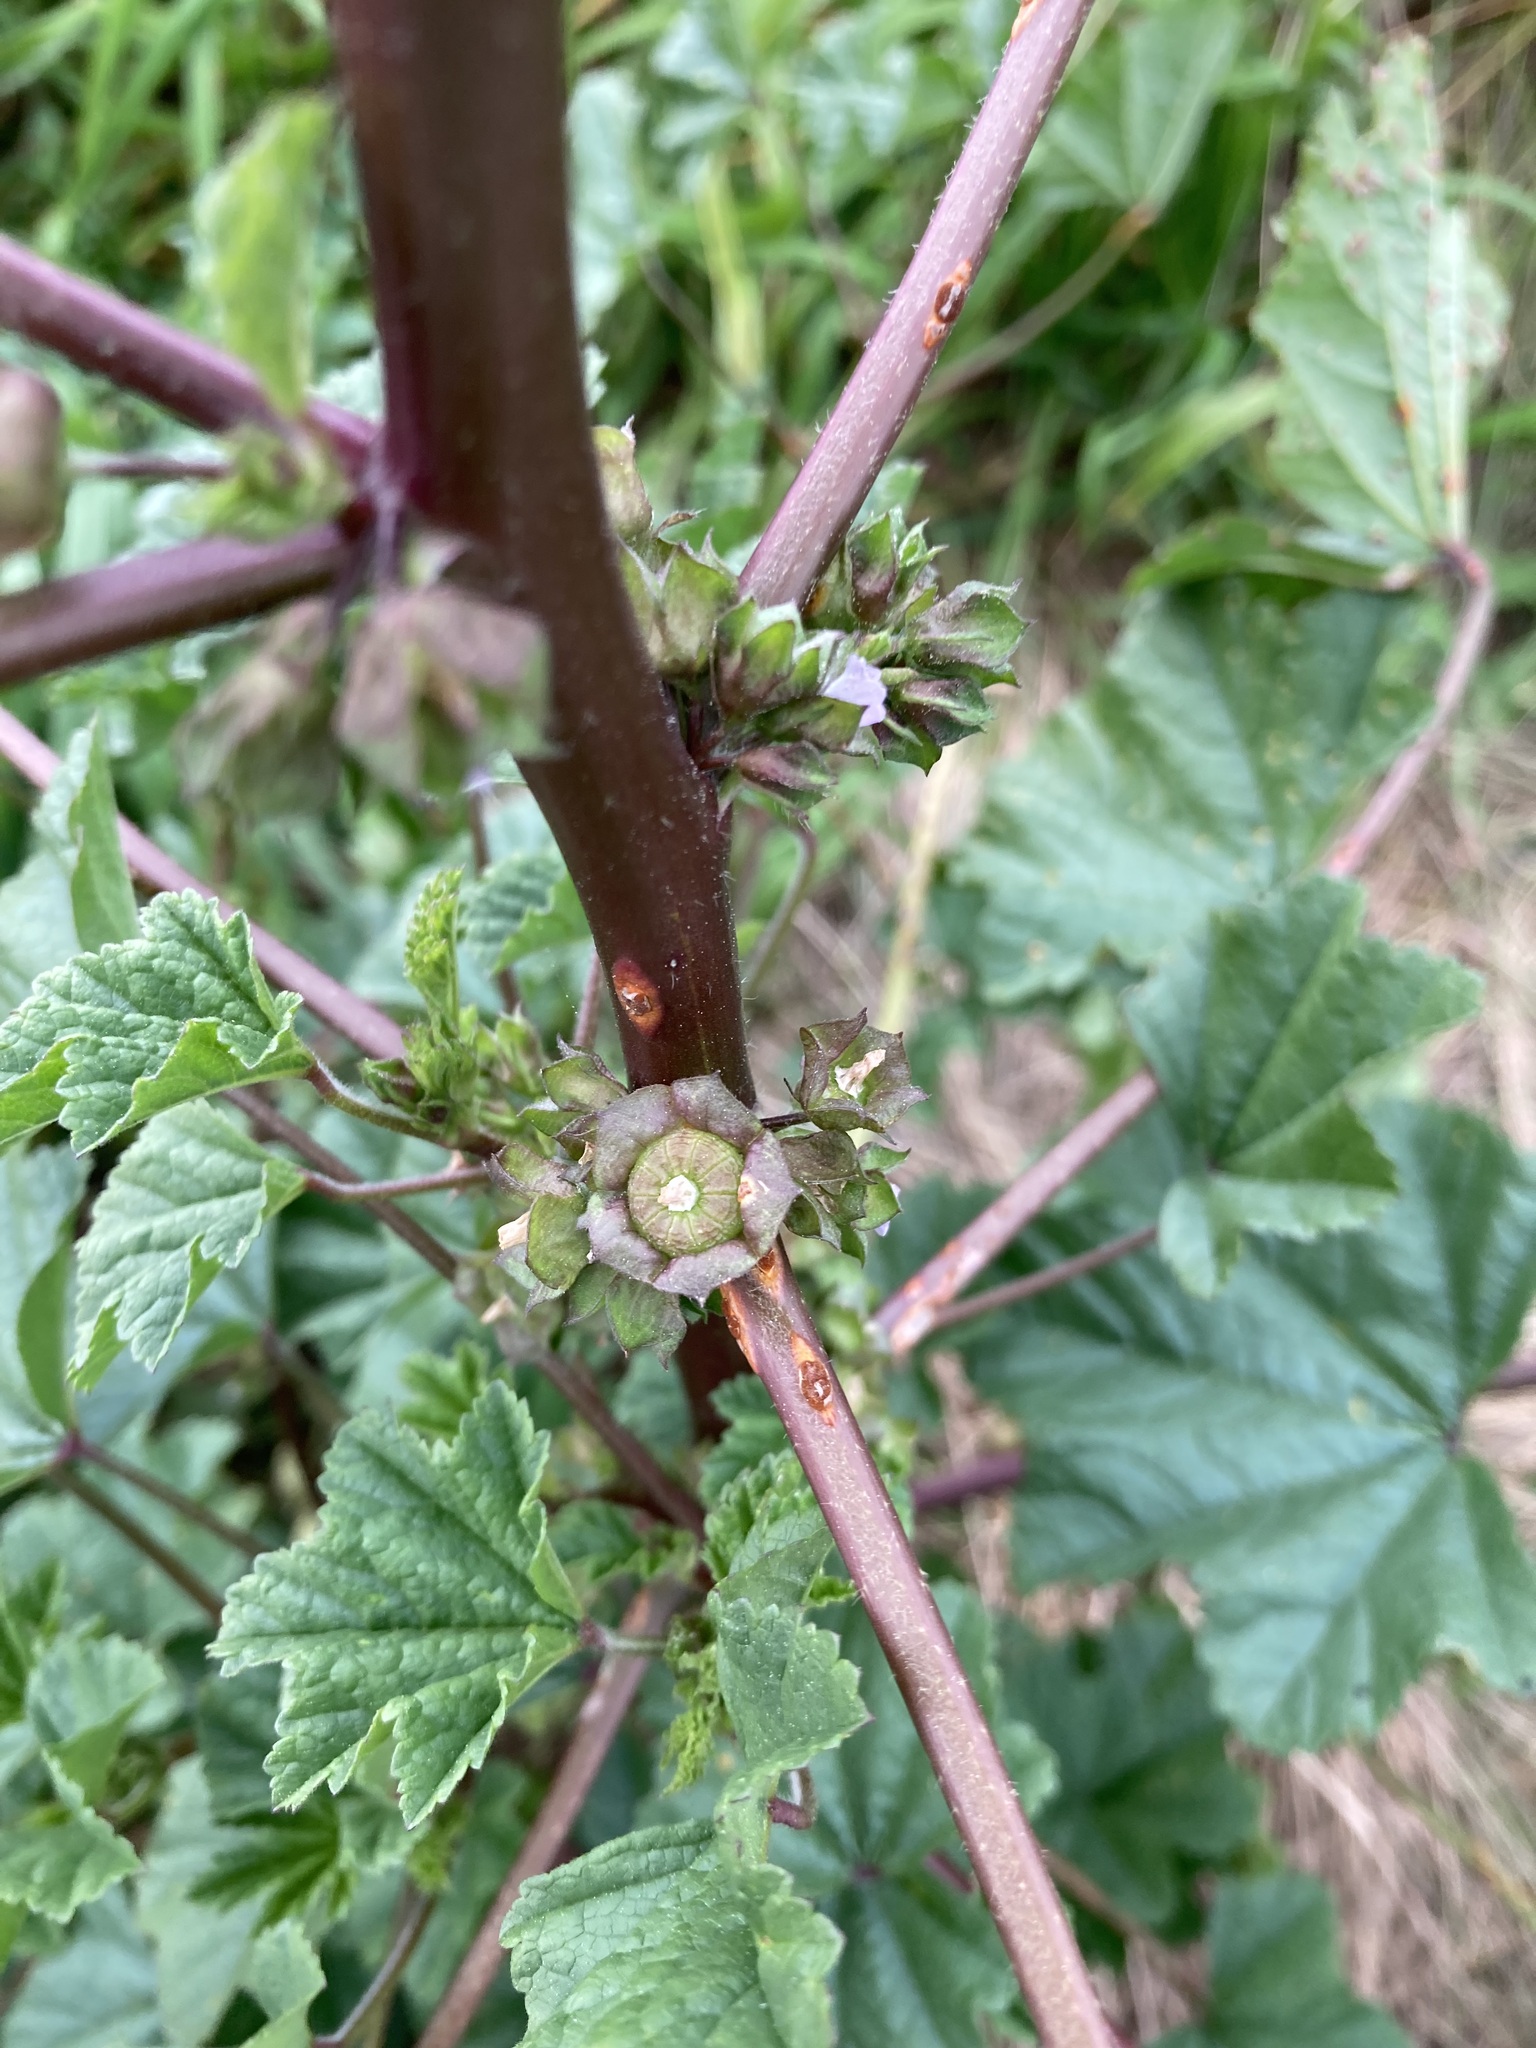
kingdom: Plantae
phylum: Tracheophyta
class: Magnoliopsida
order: Malvales
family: Malvaceae
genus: Malva
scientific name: Malva parviflora
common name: Least mallow
